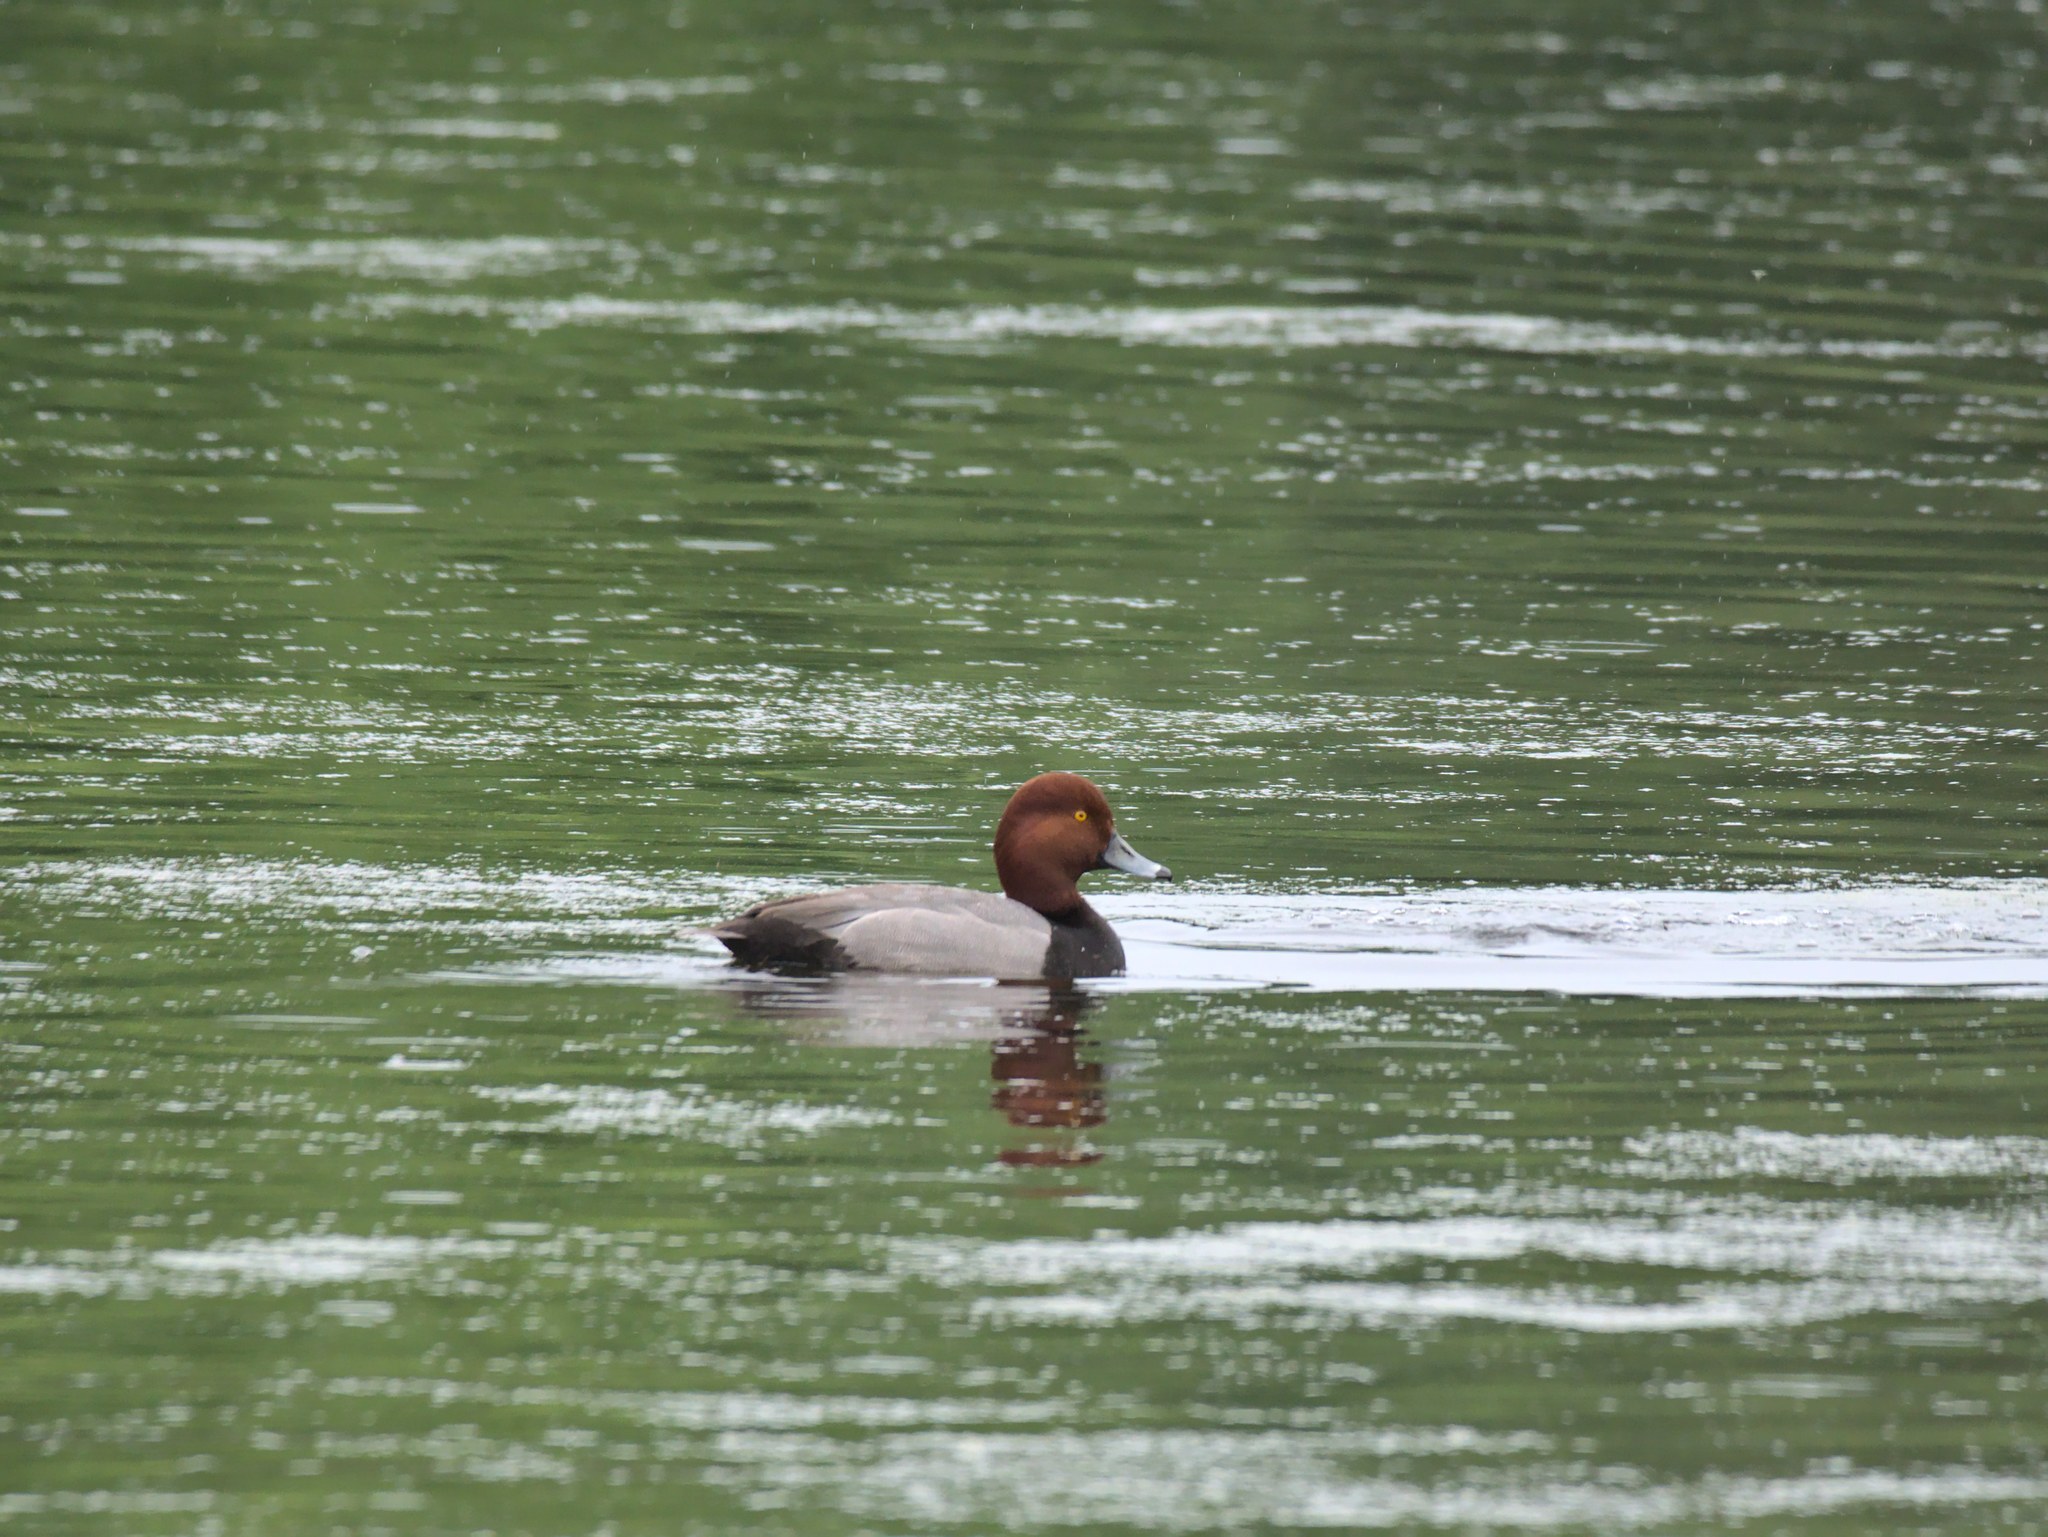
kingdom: Animalia
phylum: Chordata
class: Aves
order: Anseriformes
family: Anatidae
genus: Aythya
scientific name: Aythya americana
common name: Redhead
